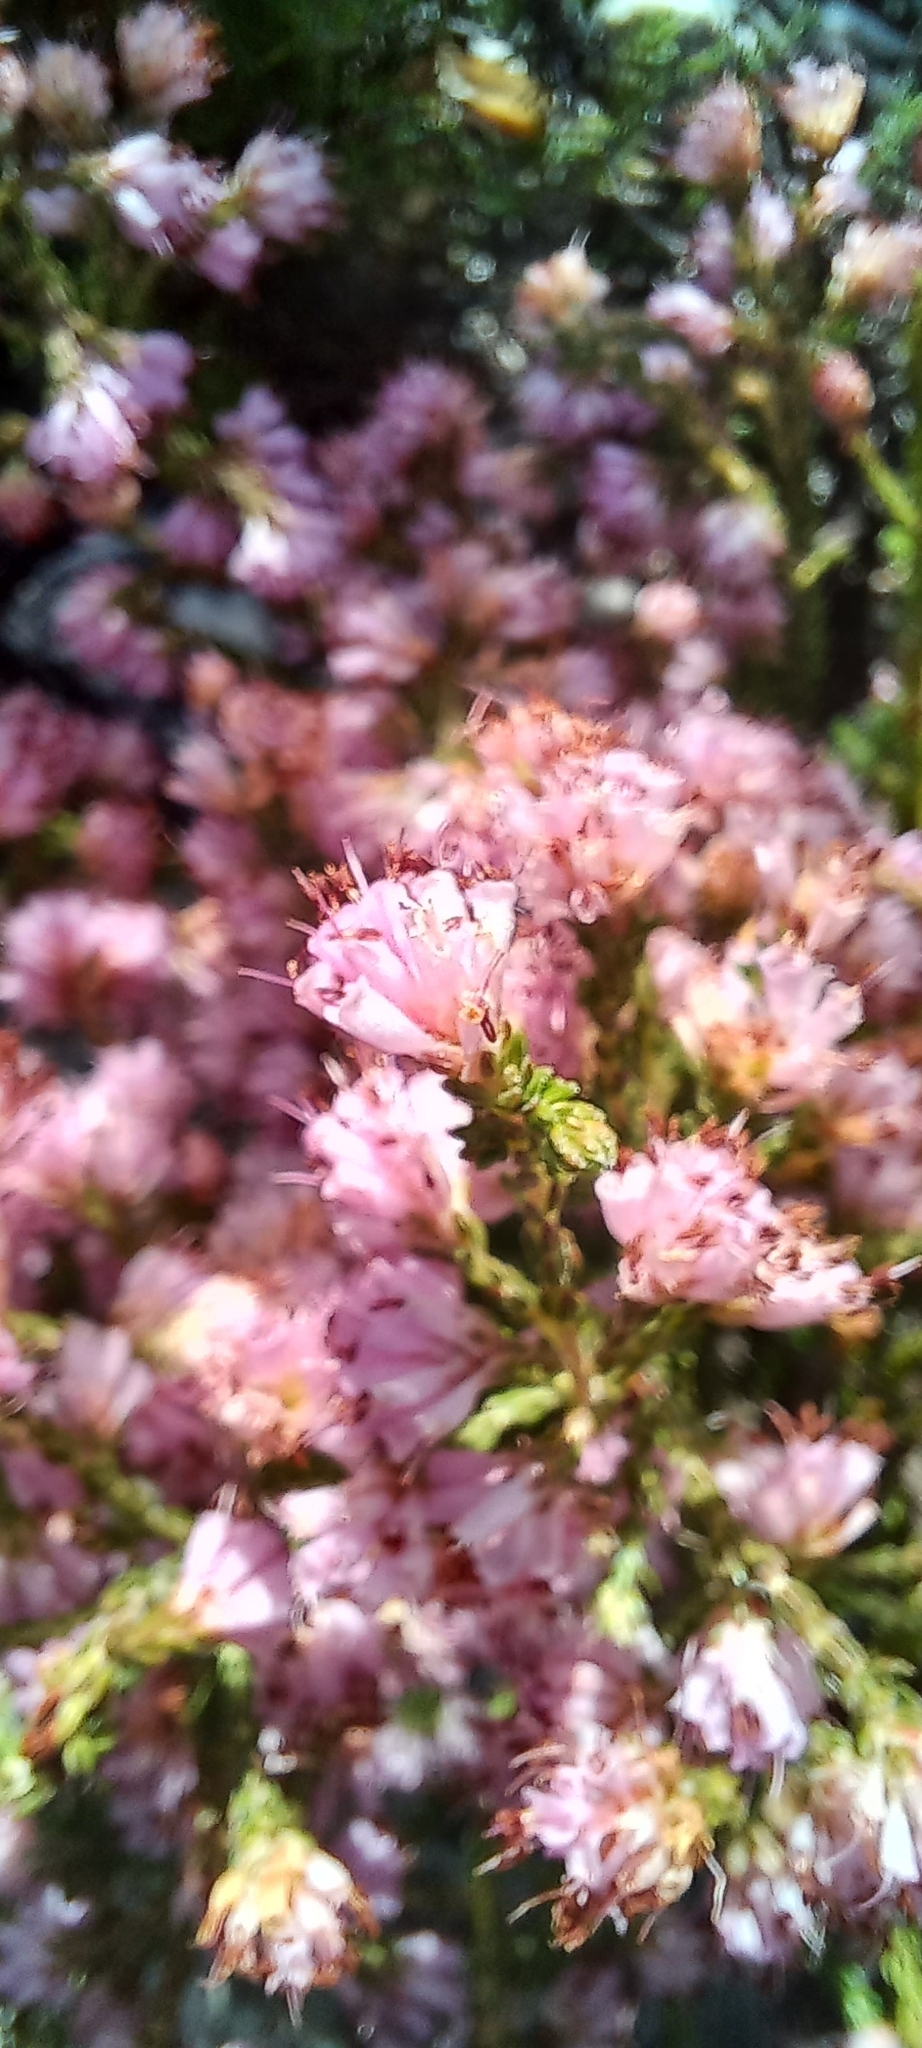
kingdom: Plantae
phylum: Tracheophyta
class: Magnoliopsida
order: Ericales
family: Ericaceae
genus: Erica
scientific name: Erica labialis
